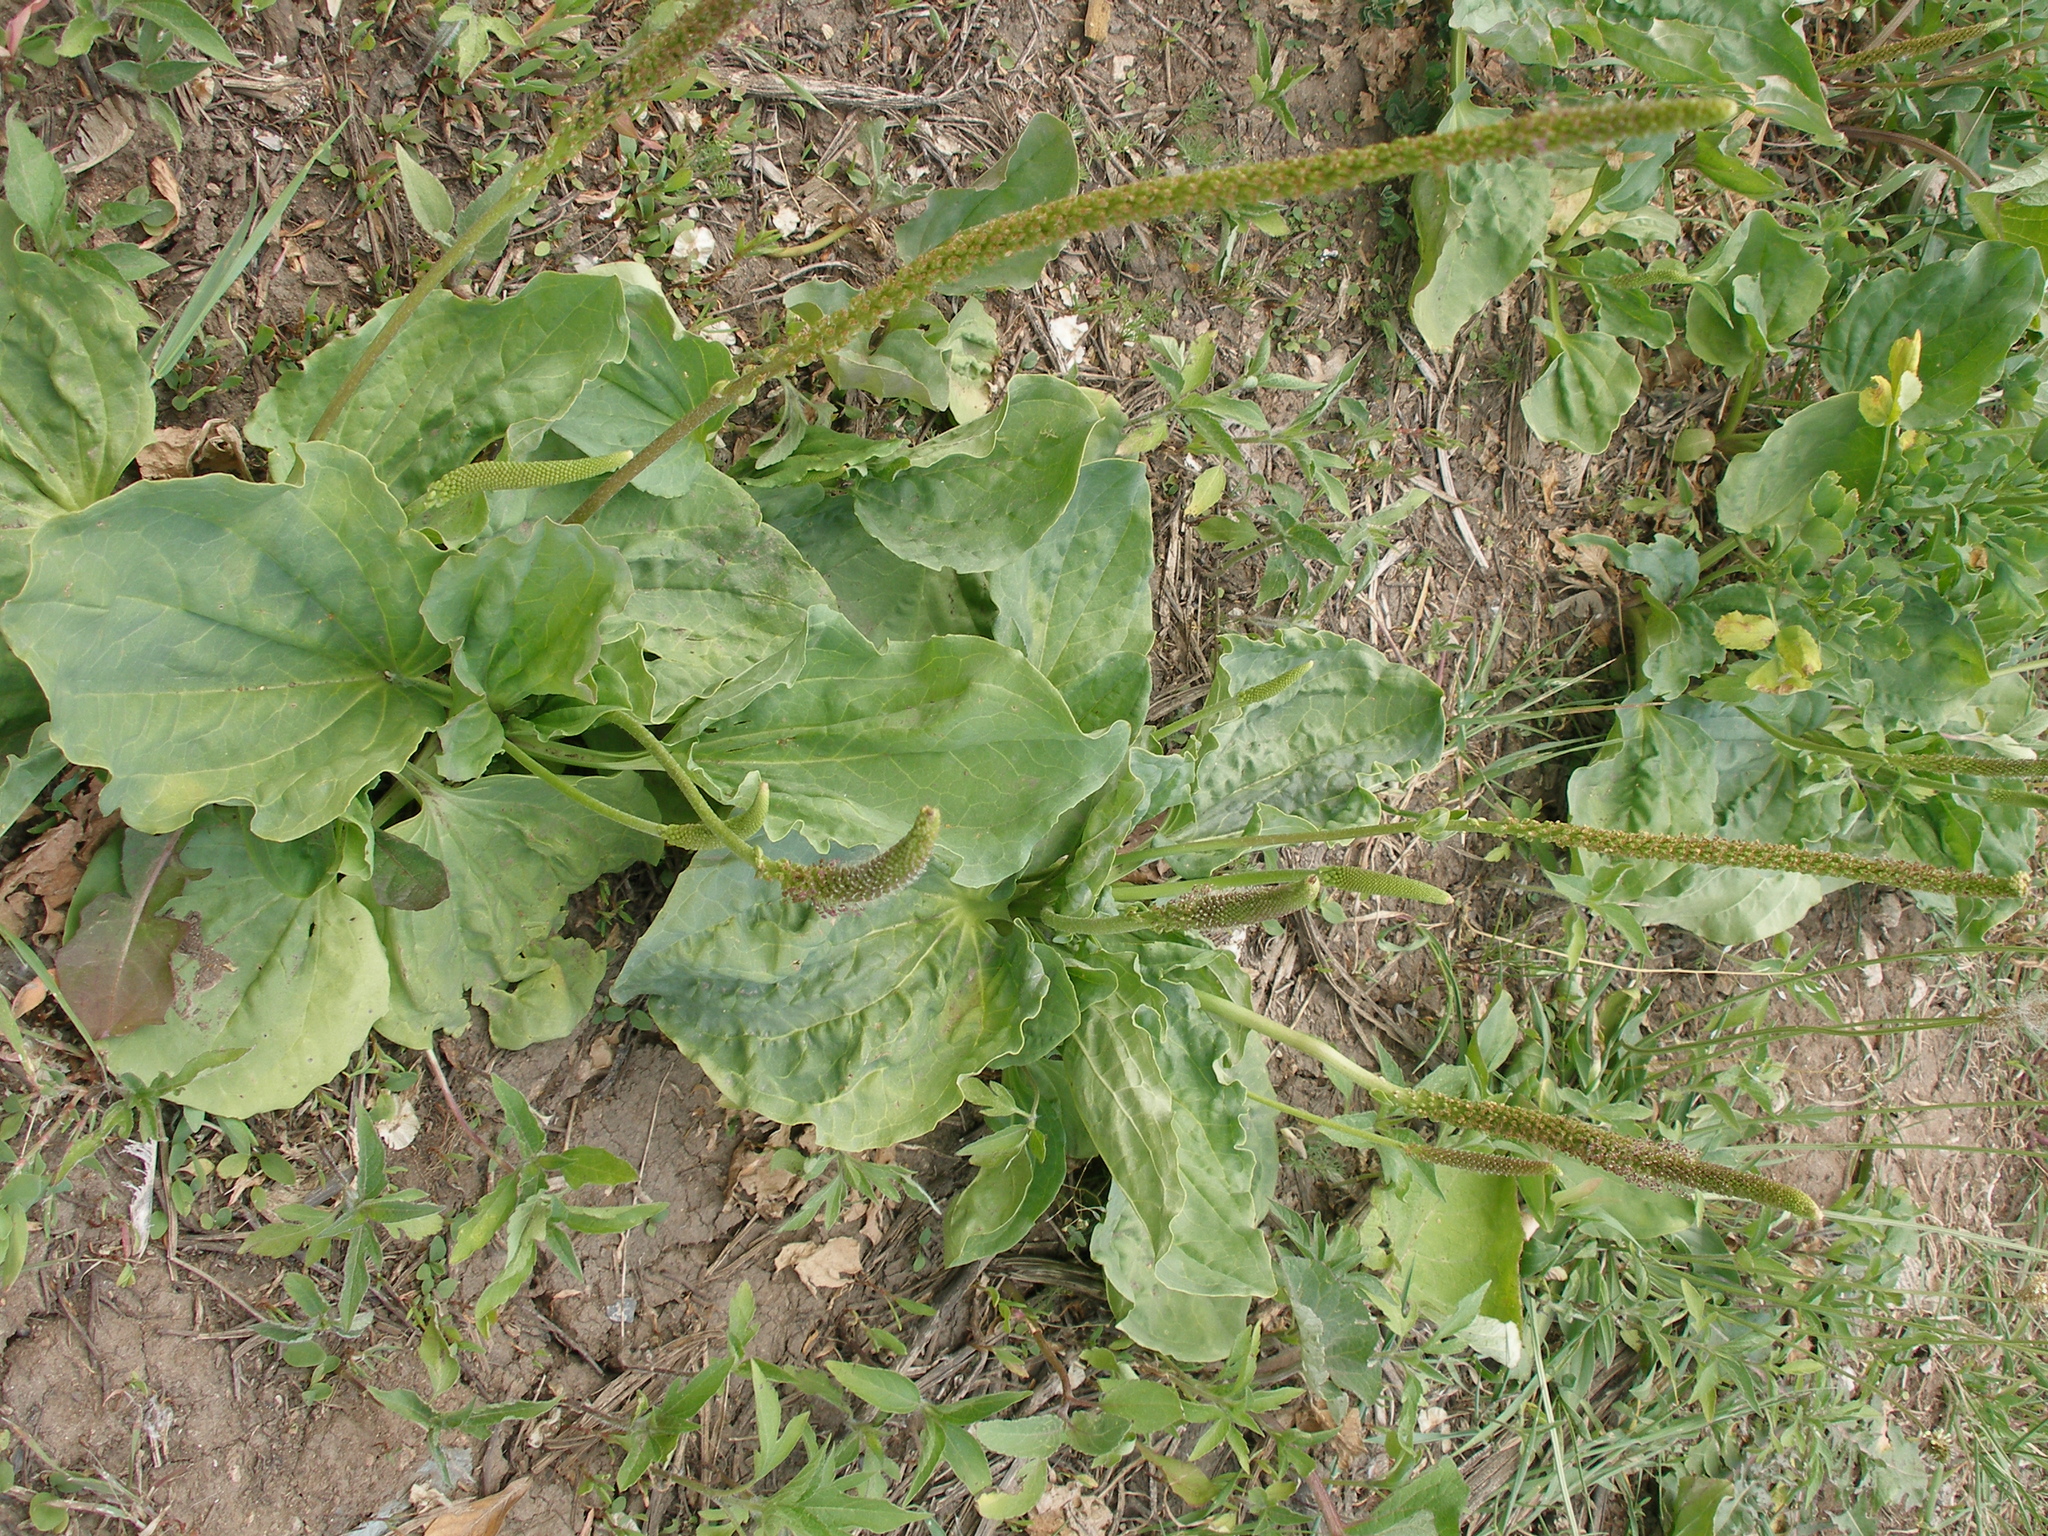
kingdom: Plantae
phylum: Tracheophyta
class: Magnoliopsida
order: Lamiales
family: Plantaginaceae
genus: Plantago
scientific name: Plantago major
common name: Common plantain
